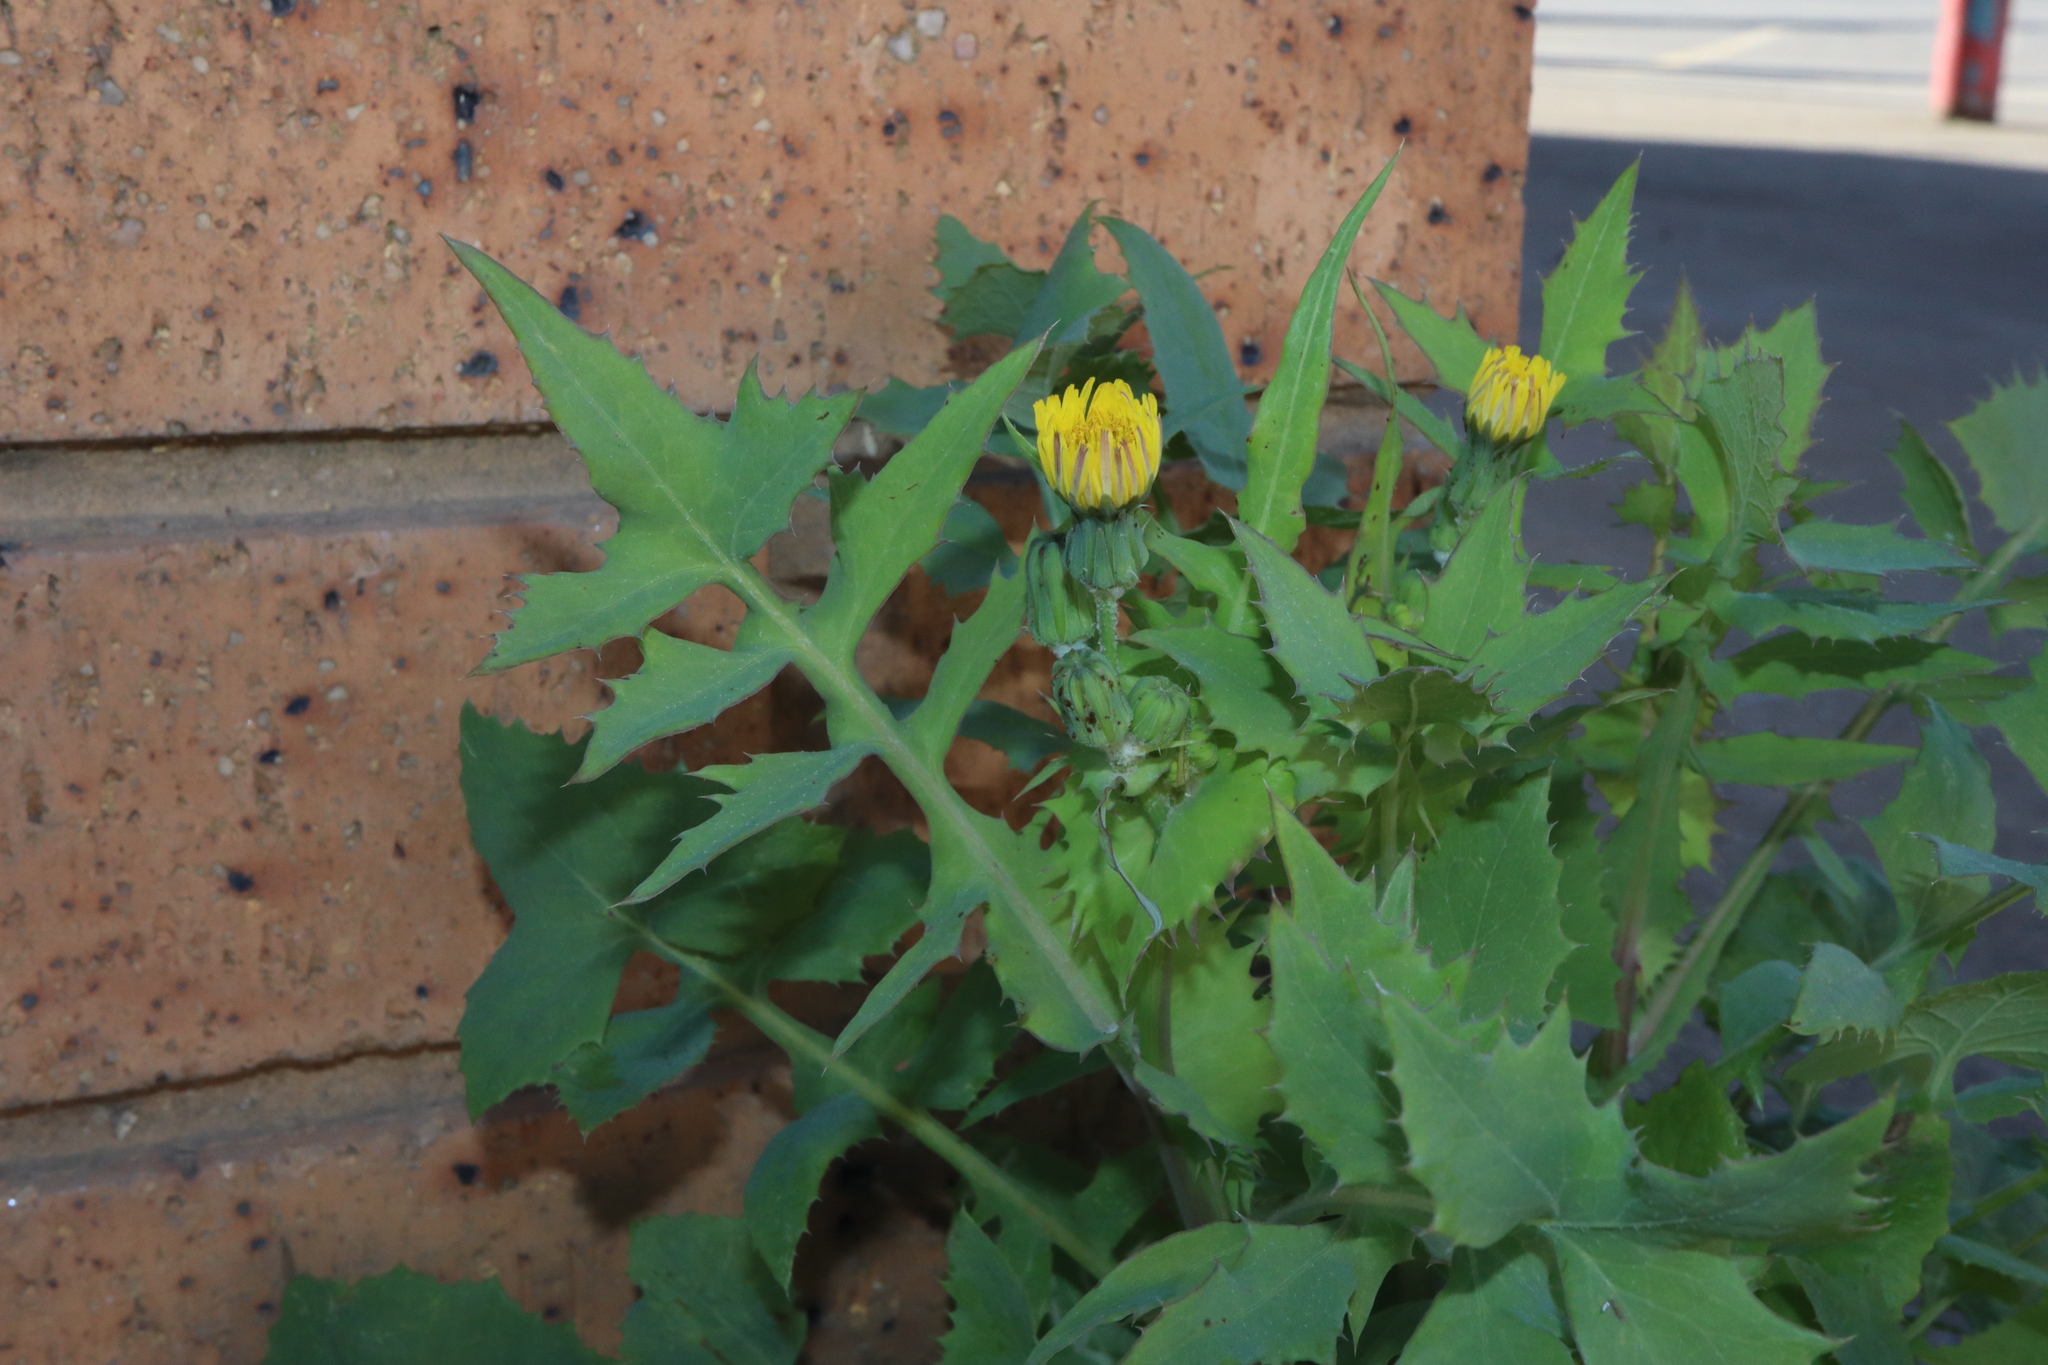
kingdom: Plantae
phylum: Tracheophyta
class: Magnoliopsida
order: Asterales
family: Asteraceae
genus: Sonchus
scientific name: Sonchus oleraceus
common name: Common sowthistle
